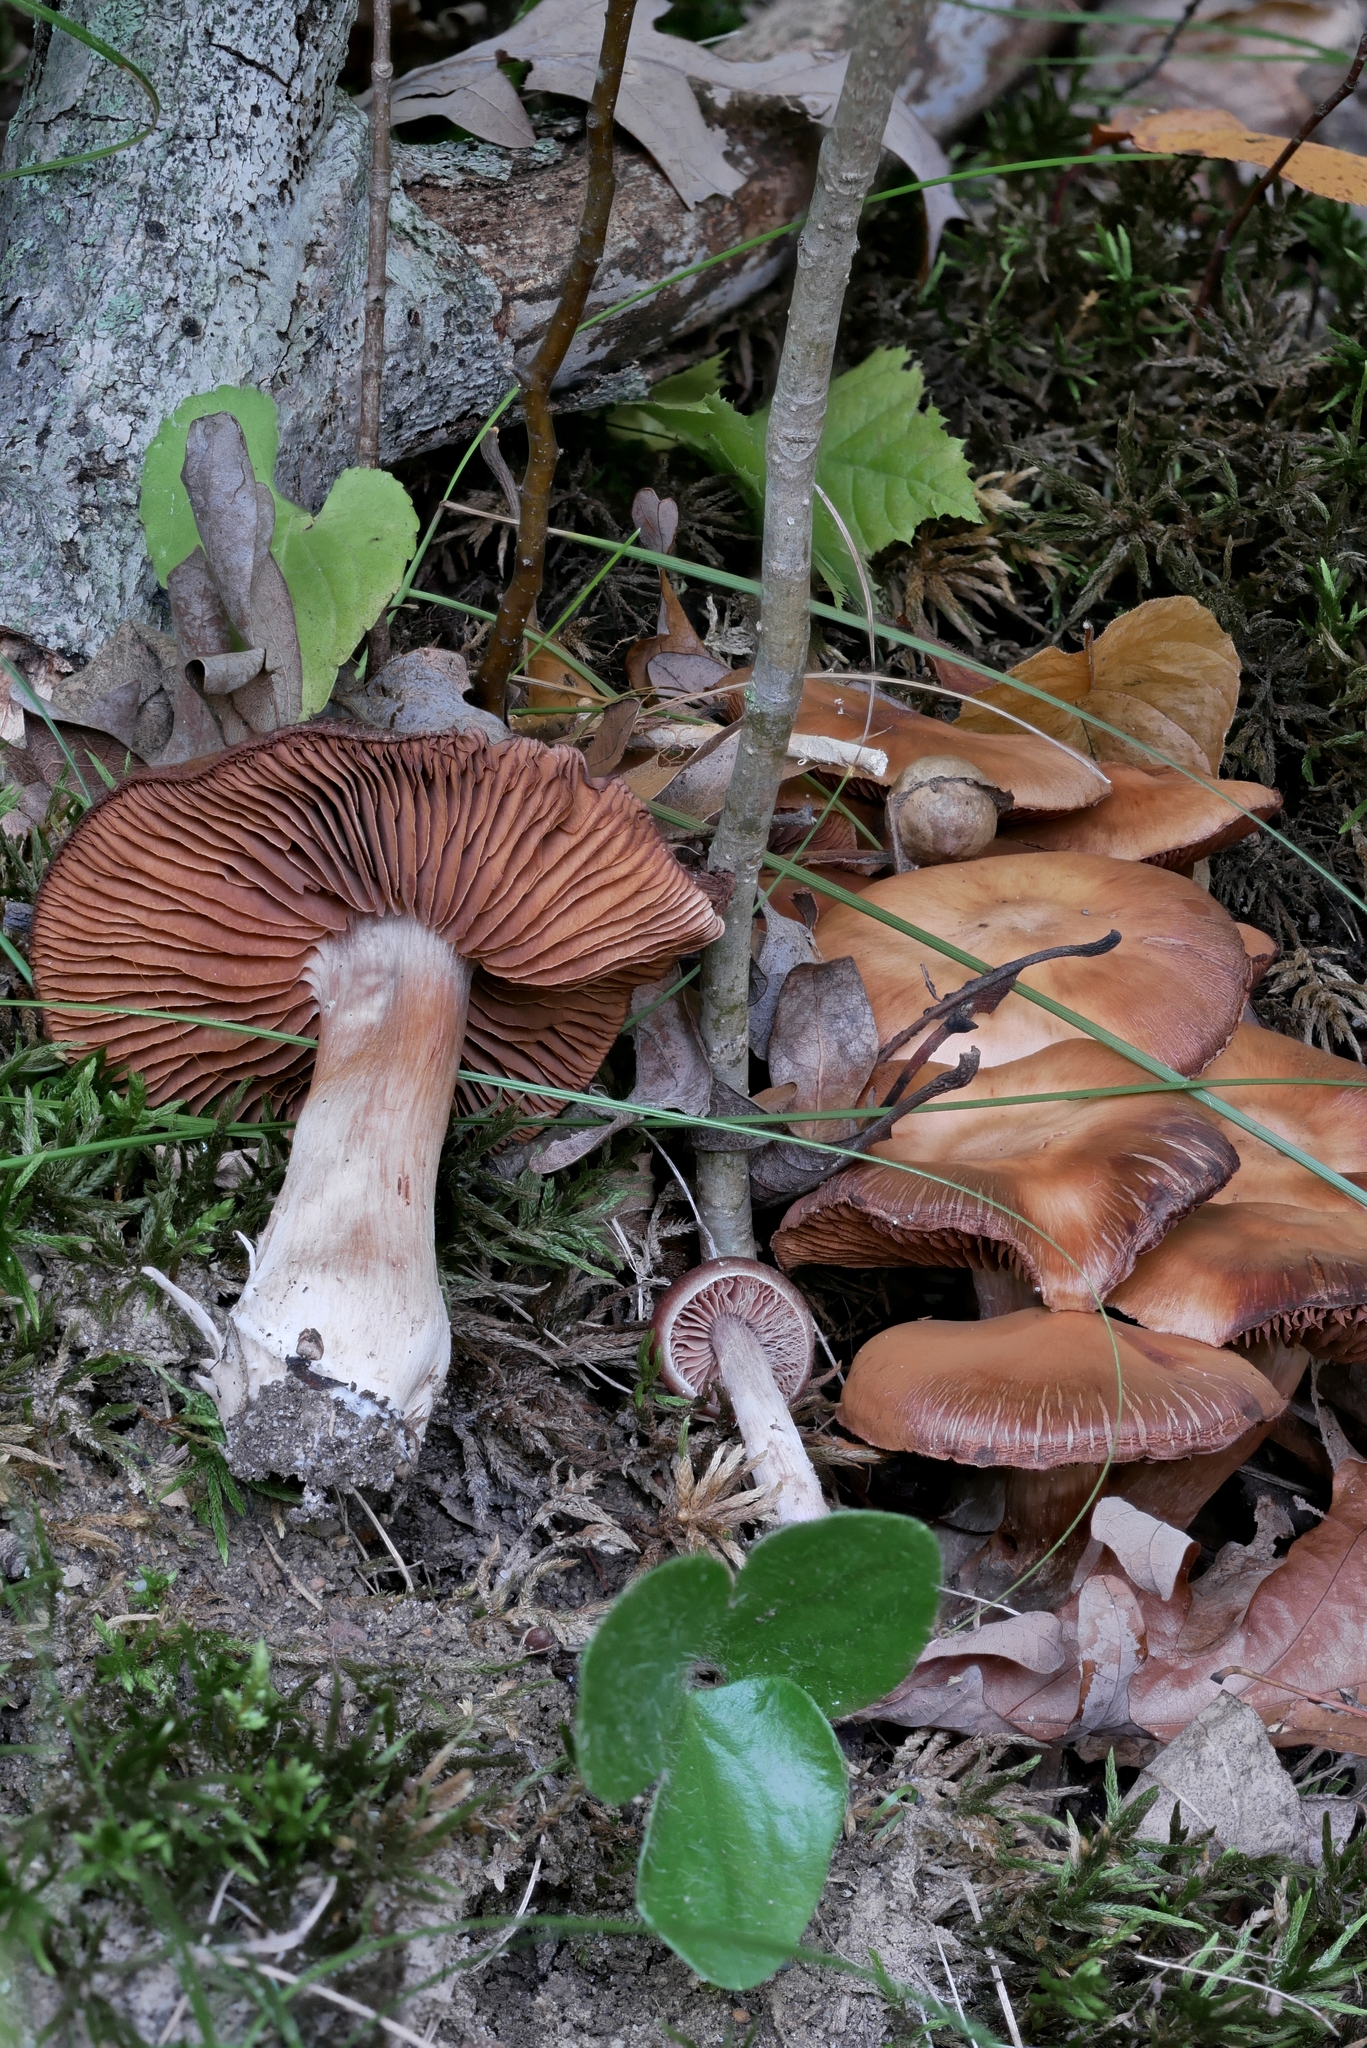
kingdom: Fungi
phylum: Basidiomycota
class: Agaricomycetes
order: Agaricales
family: Cortinariaceae
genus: Cortinarius
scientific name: Cortinarius mattiae
